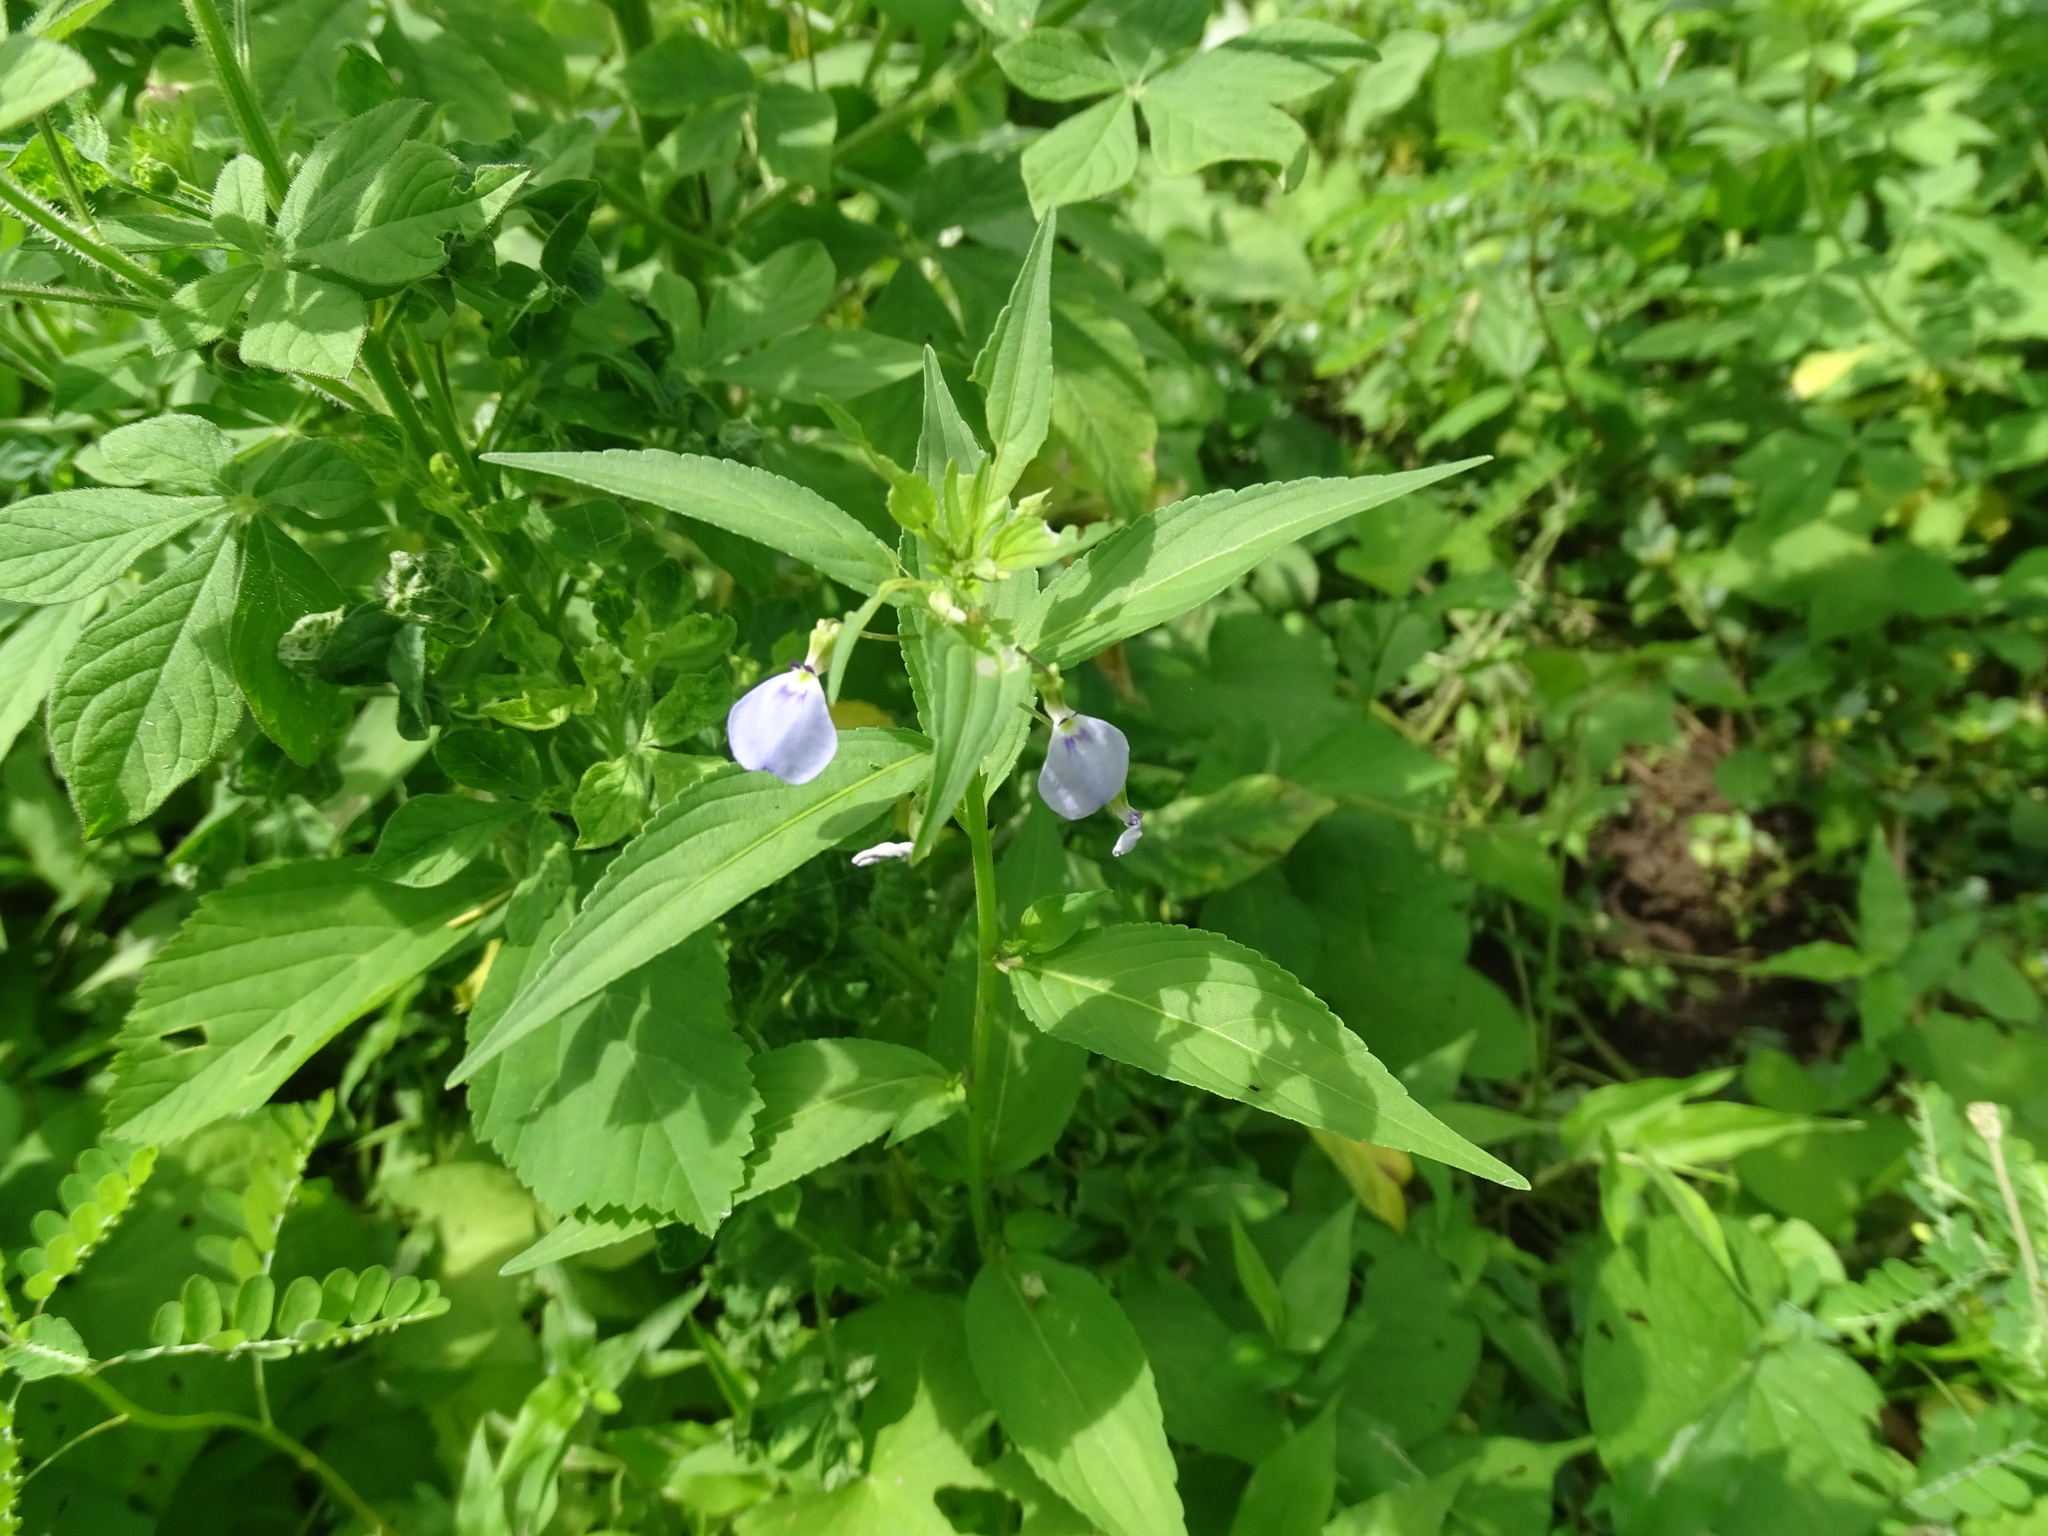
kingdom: Plantae
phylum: Tracheophyta
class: Magnoliopsida
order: Malpighiales
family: Violaceae
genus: Pombalia
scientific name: Pombalia glabra
